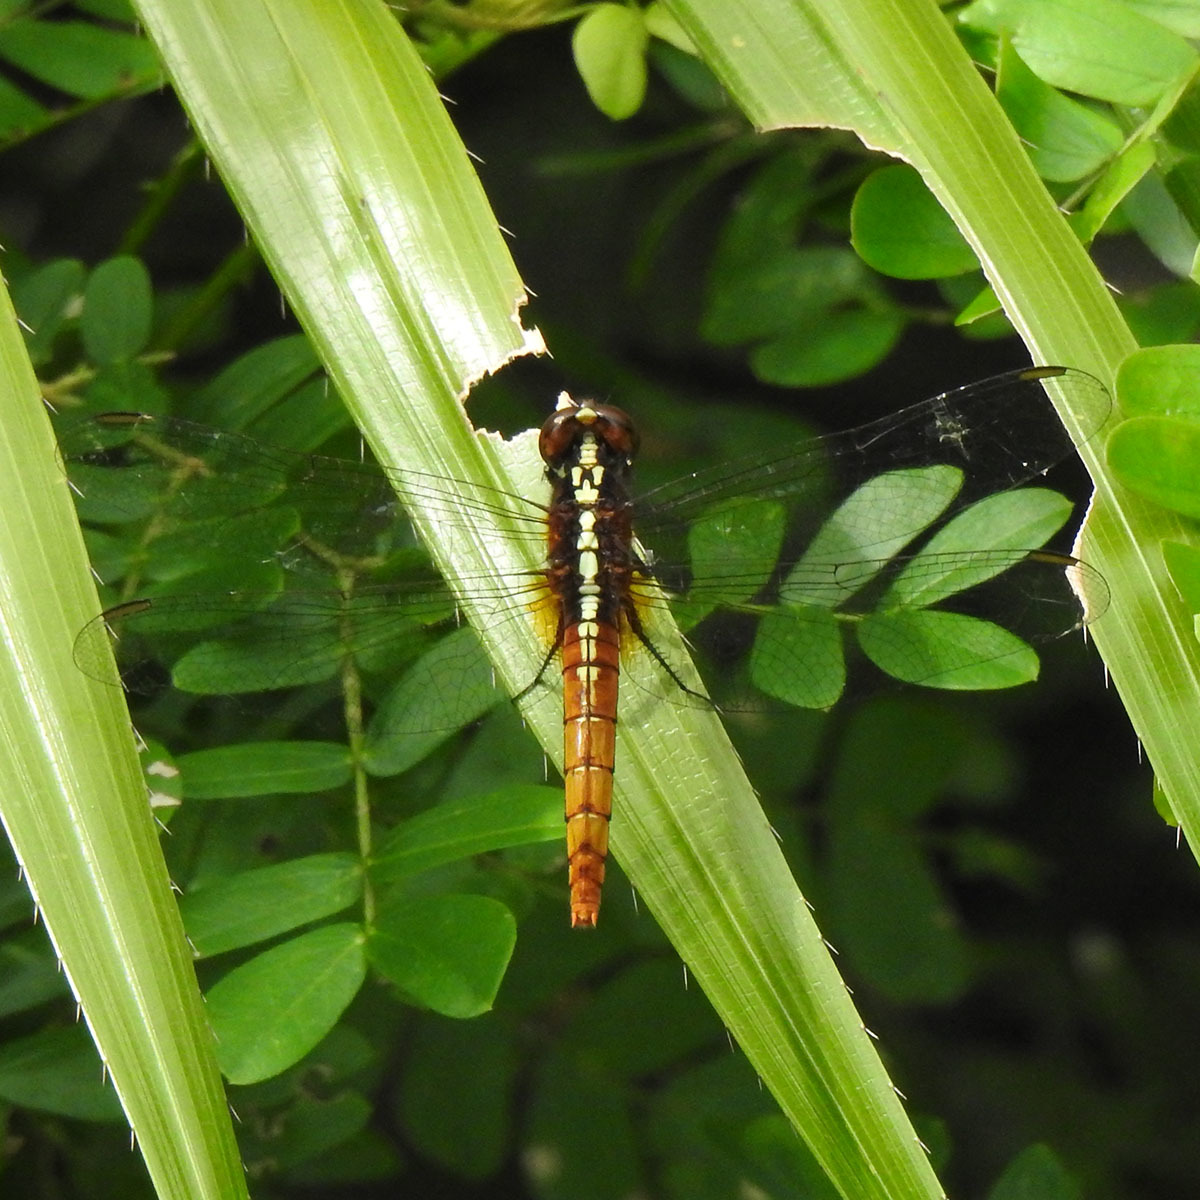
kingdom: Animalia
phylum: Arthropoda
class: Insecta
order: Odonata
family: Libellulidae
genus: Rhodothemis
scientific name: Rhodothemis rufa
